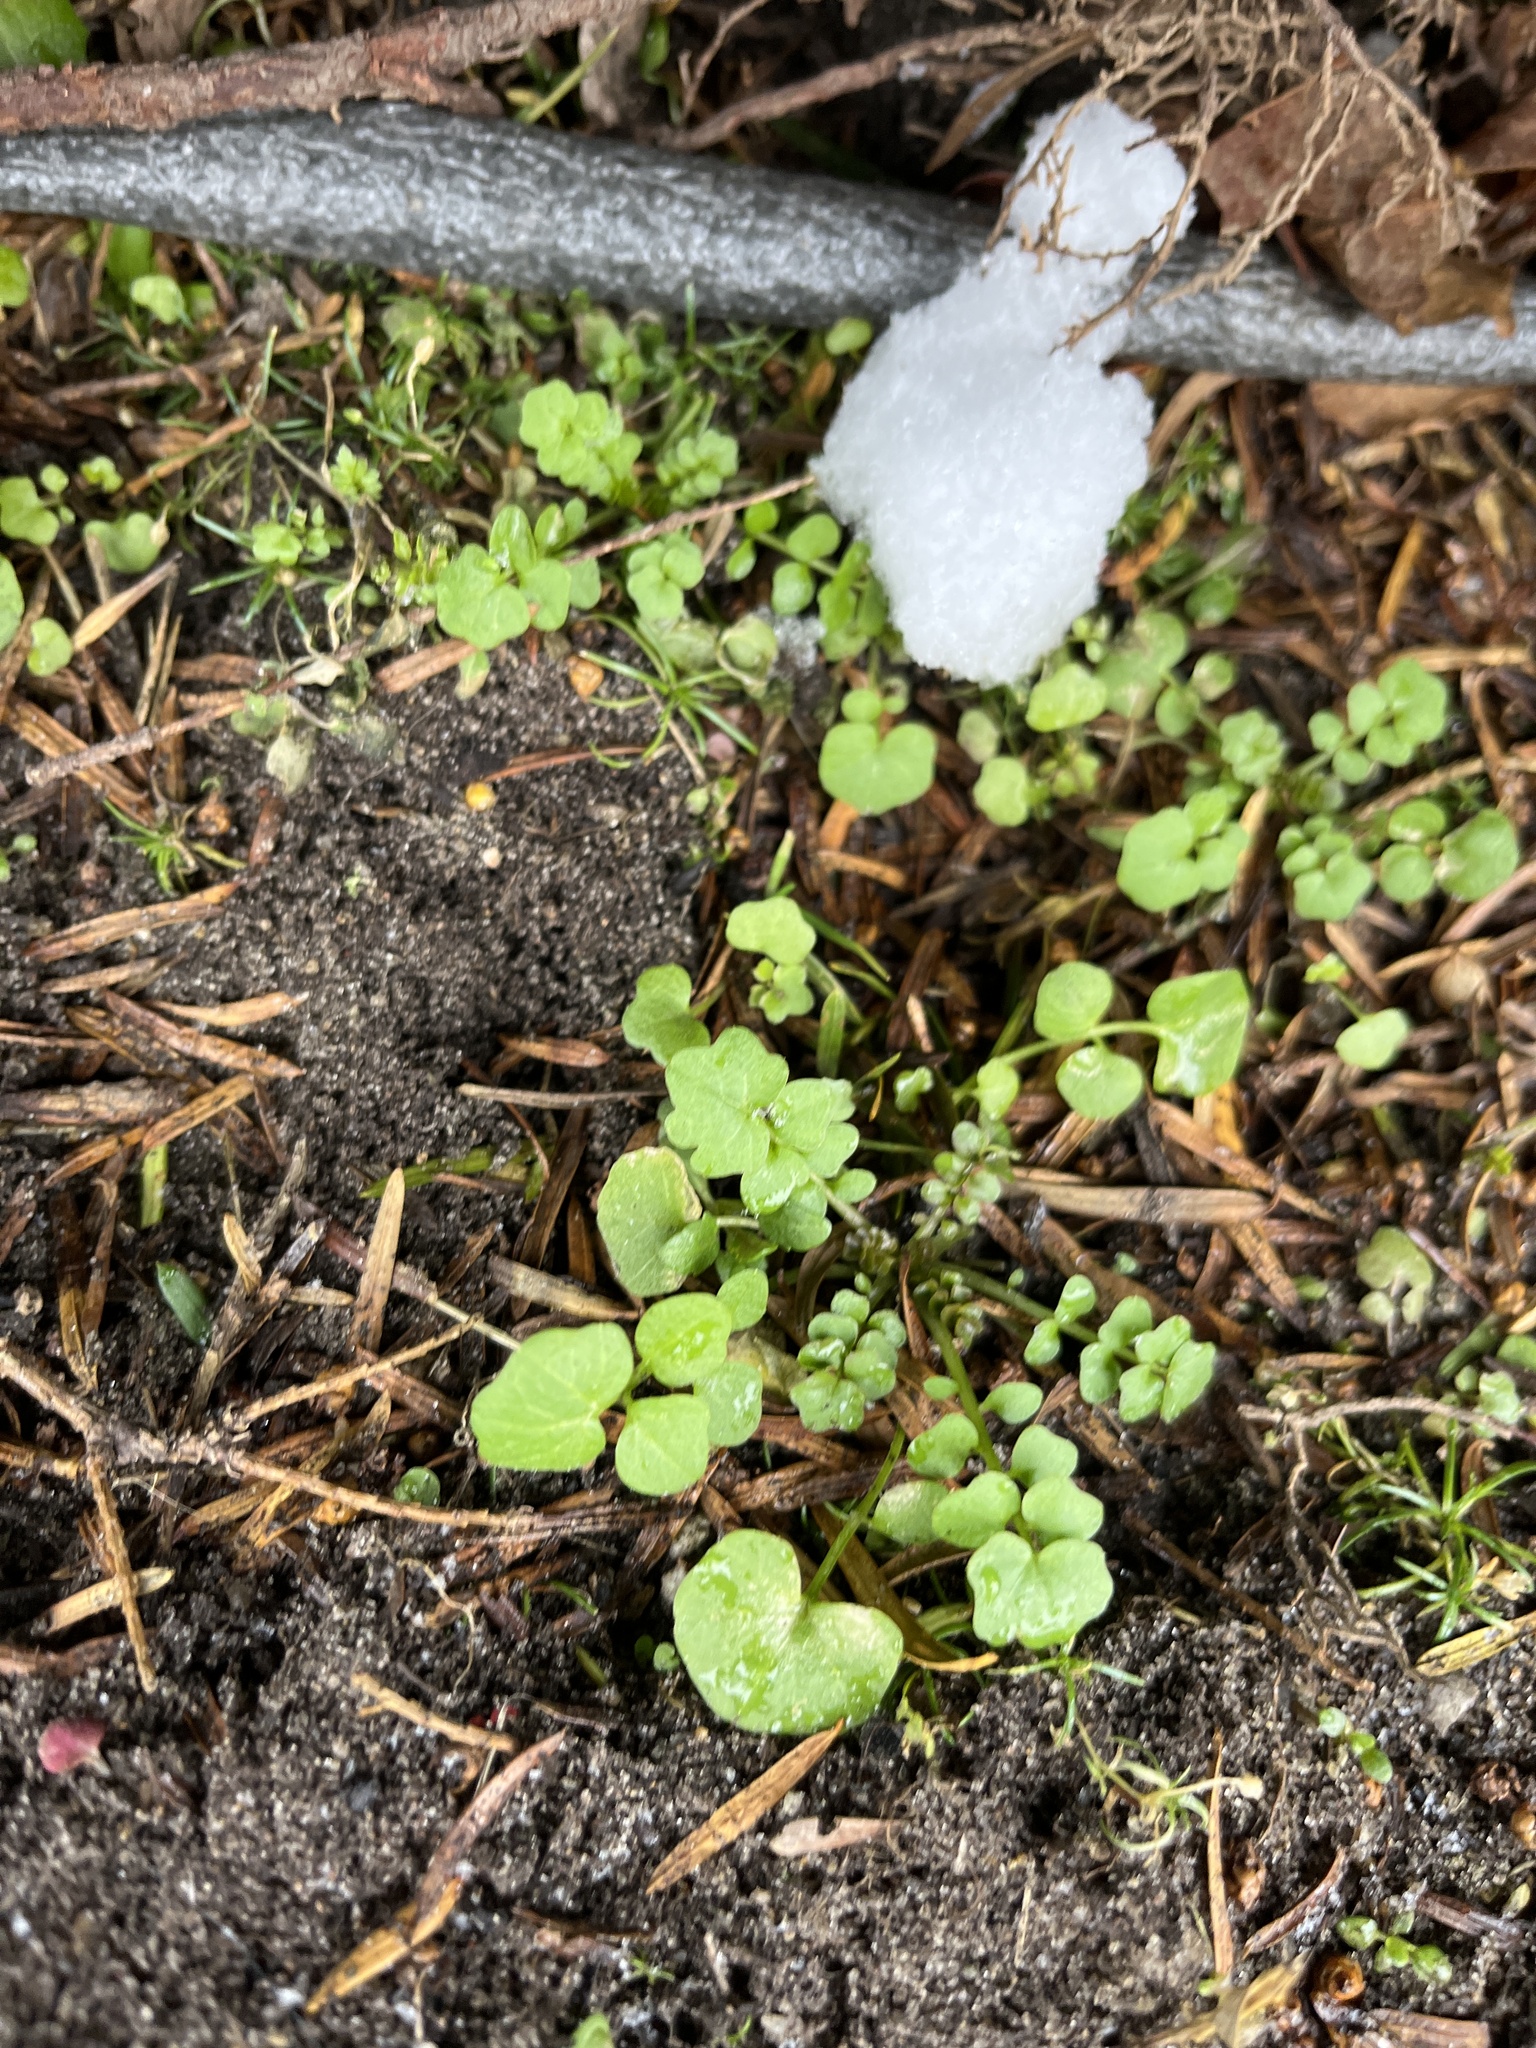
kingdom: Plantae
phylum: Tracheophyta
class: Magnoliopsida
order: Brassicales
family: Brassicaceae
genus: Cardamine
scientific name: Cardamine hirsuta
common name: Hairy bittercress
